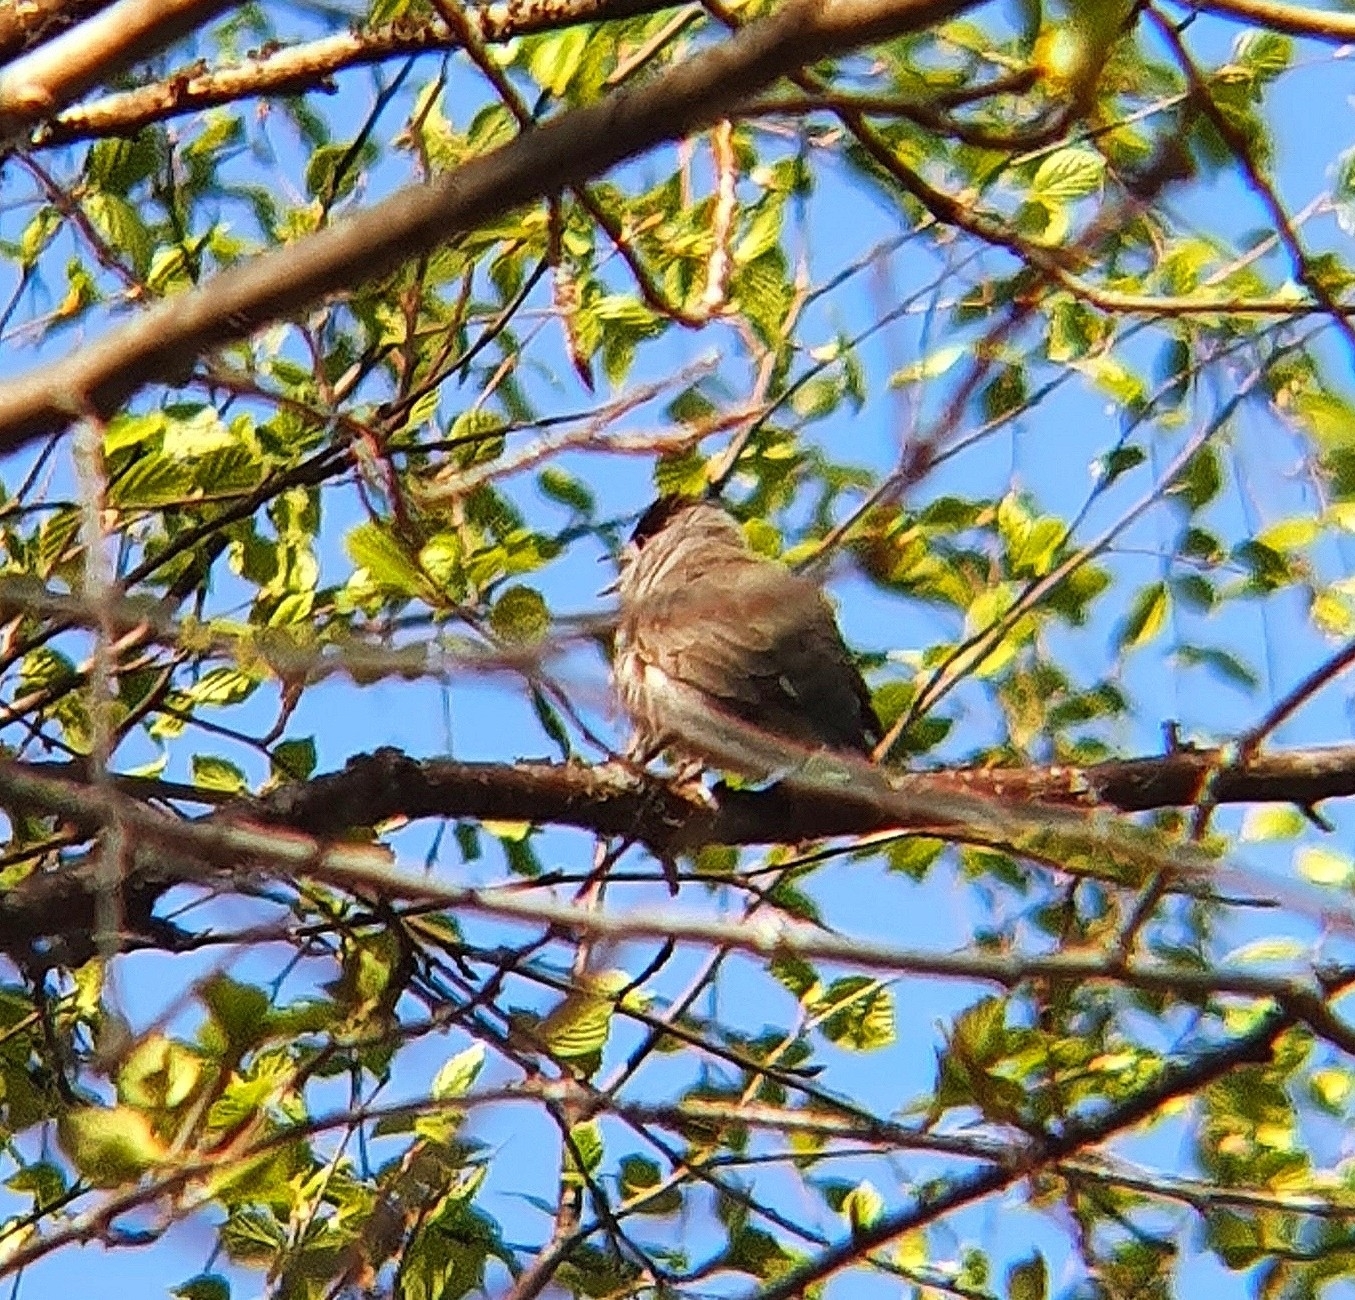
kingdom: Animalia
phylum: Chordata
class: Aves
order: Passeriformes
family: Sylviidae
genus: Sylvia
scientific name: Sylvia atricapilla
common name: Eurasian blackcap
